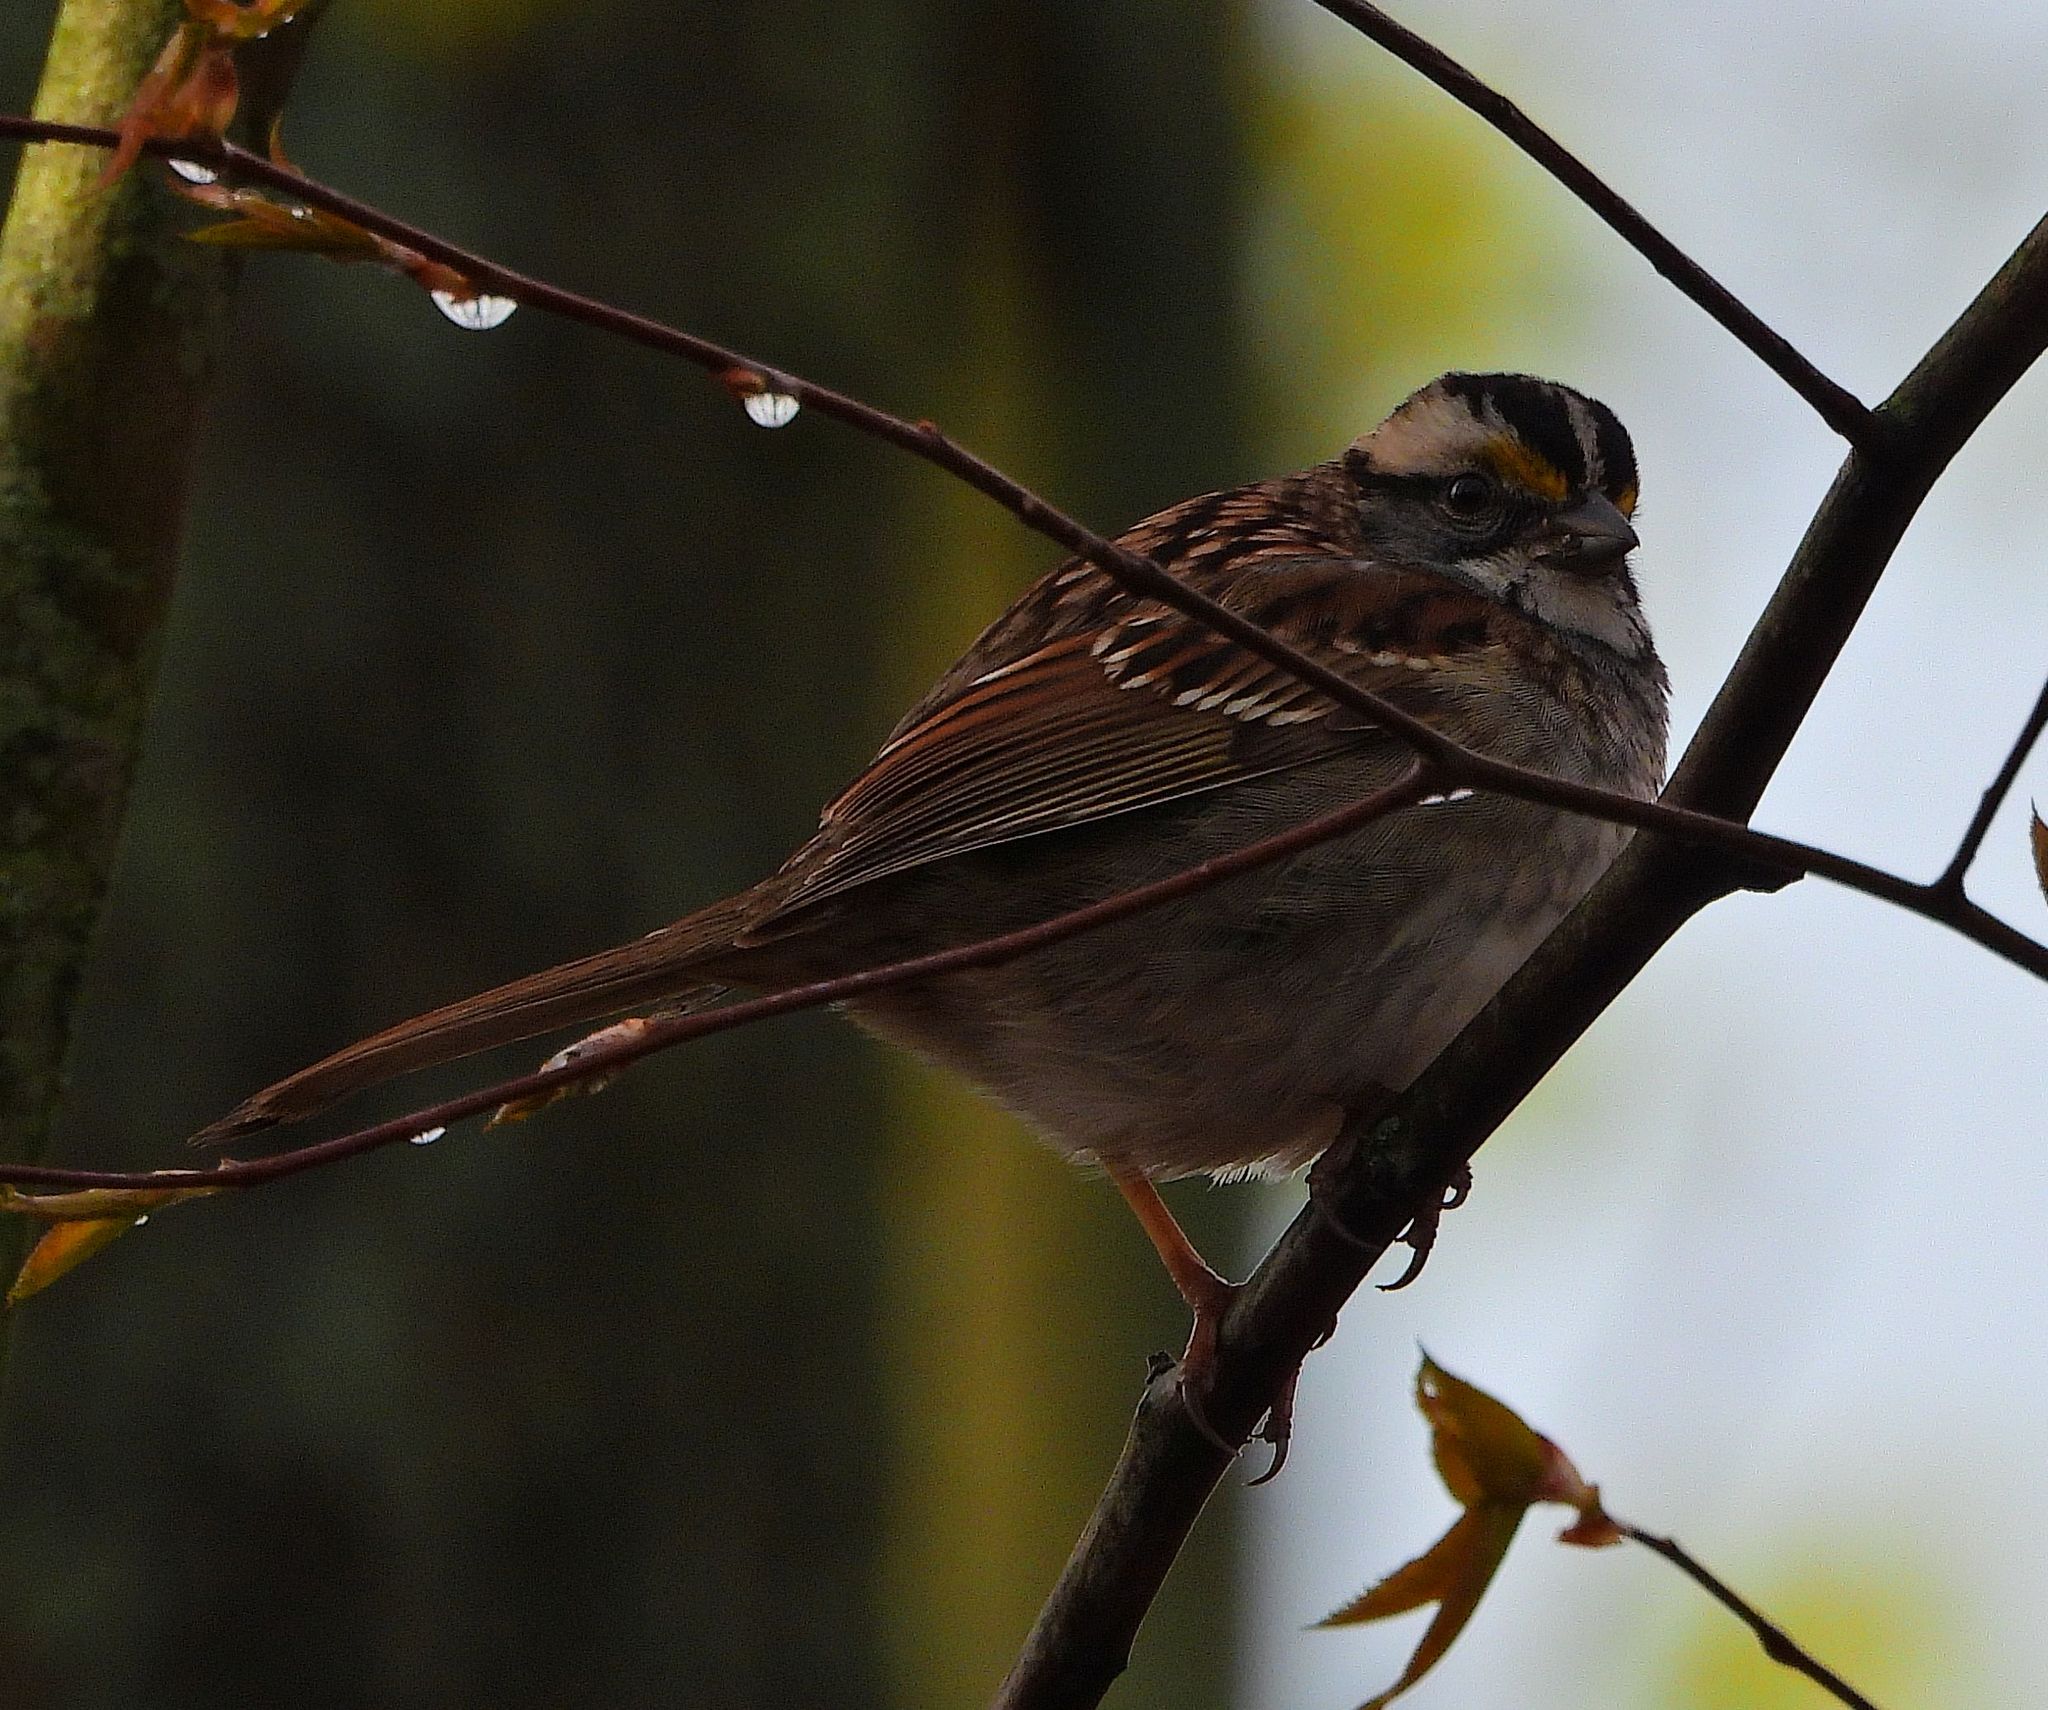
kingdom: Animalia
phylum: Chordata
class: Aves
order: Passeriformes
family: Passerellidae
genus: Zonotrichia
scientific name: Zonotrichia albicollis
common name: White-throated sparrow
